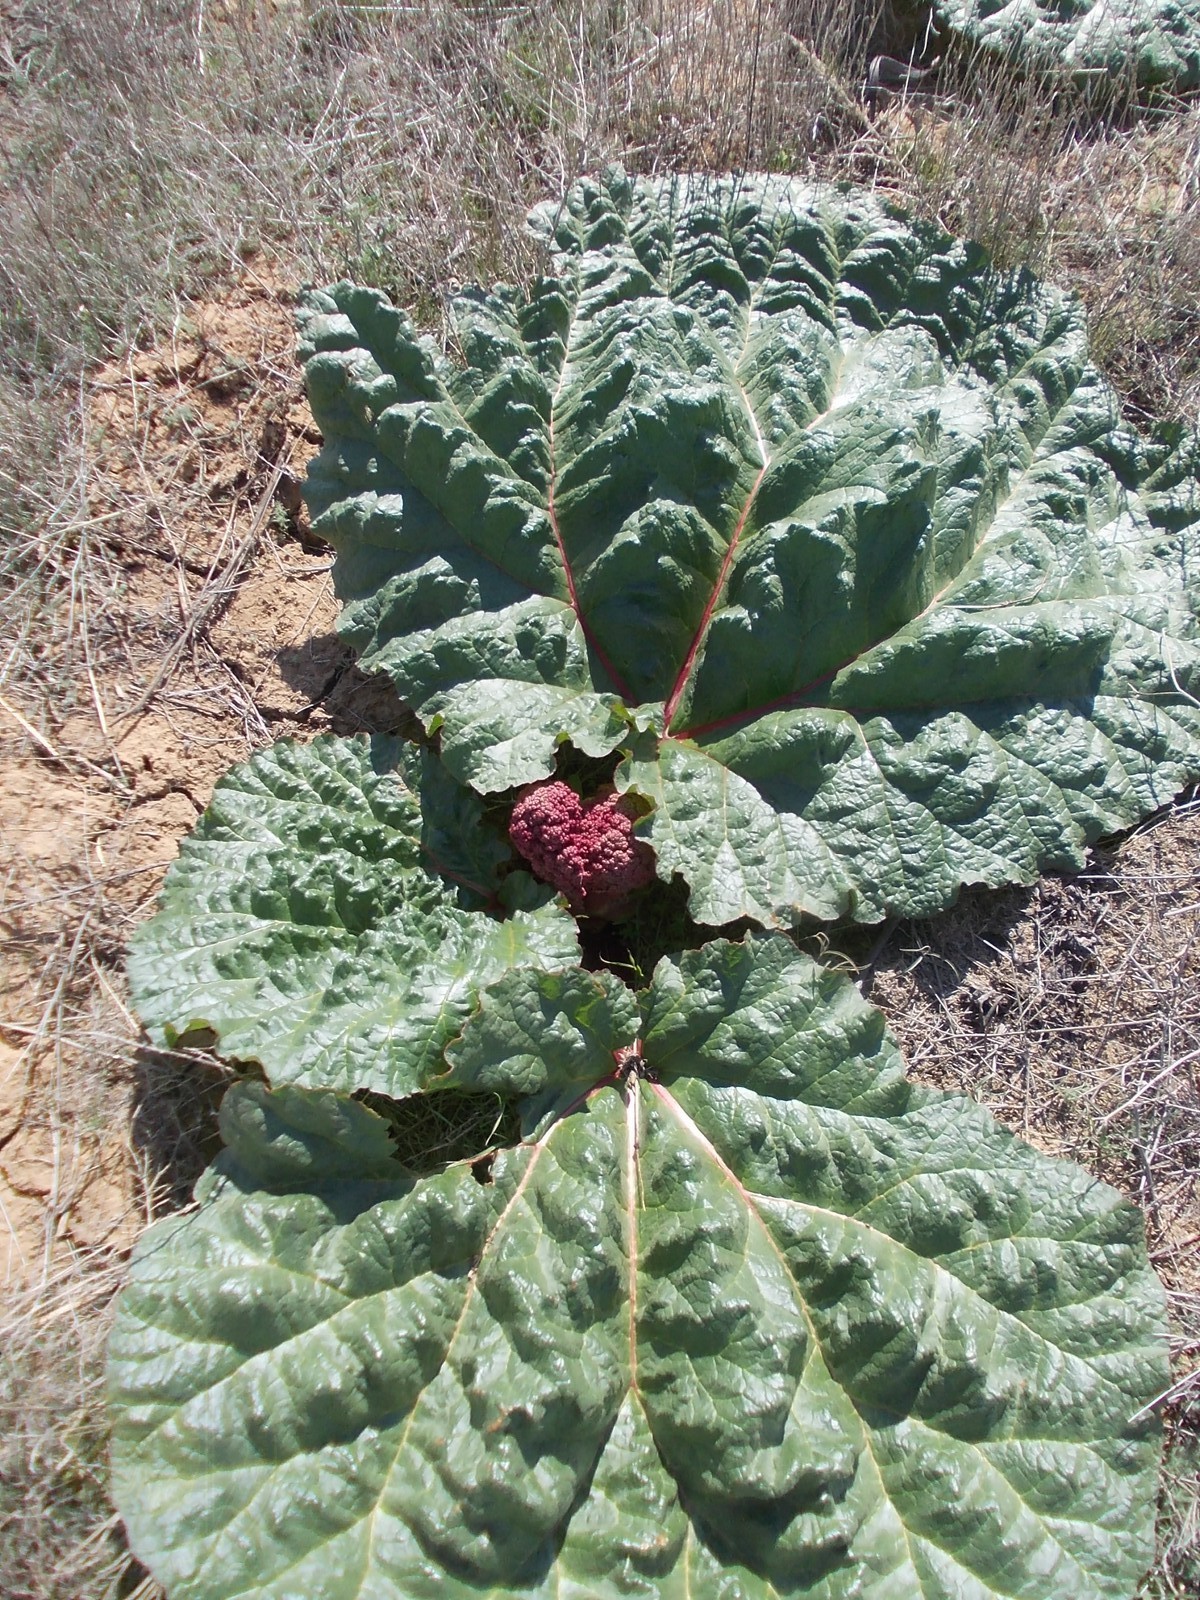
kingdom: Plantae
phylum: Tracheophyta
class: Magnoliopsida
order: Caryophyllales
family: Polygonaceae
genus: Rheum
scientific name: Rheum tataricum
